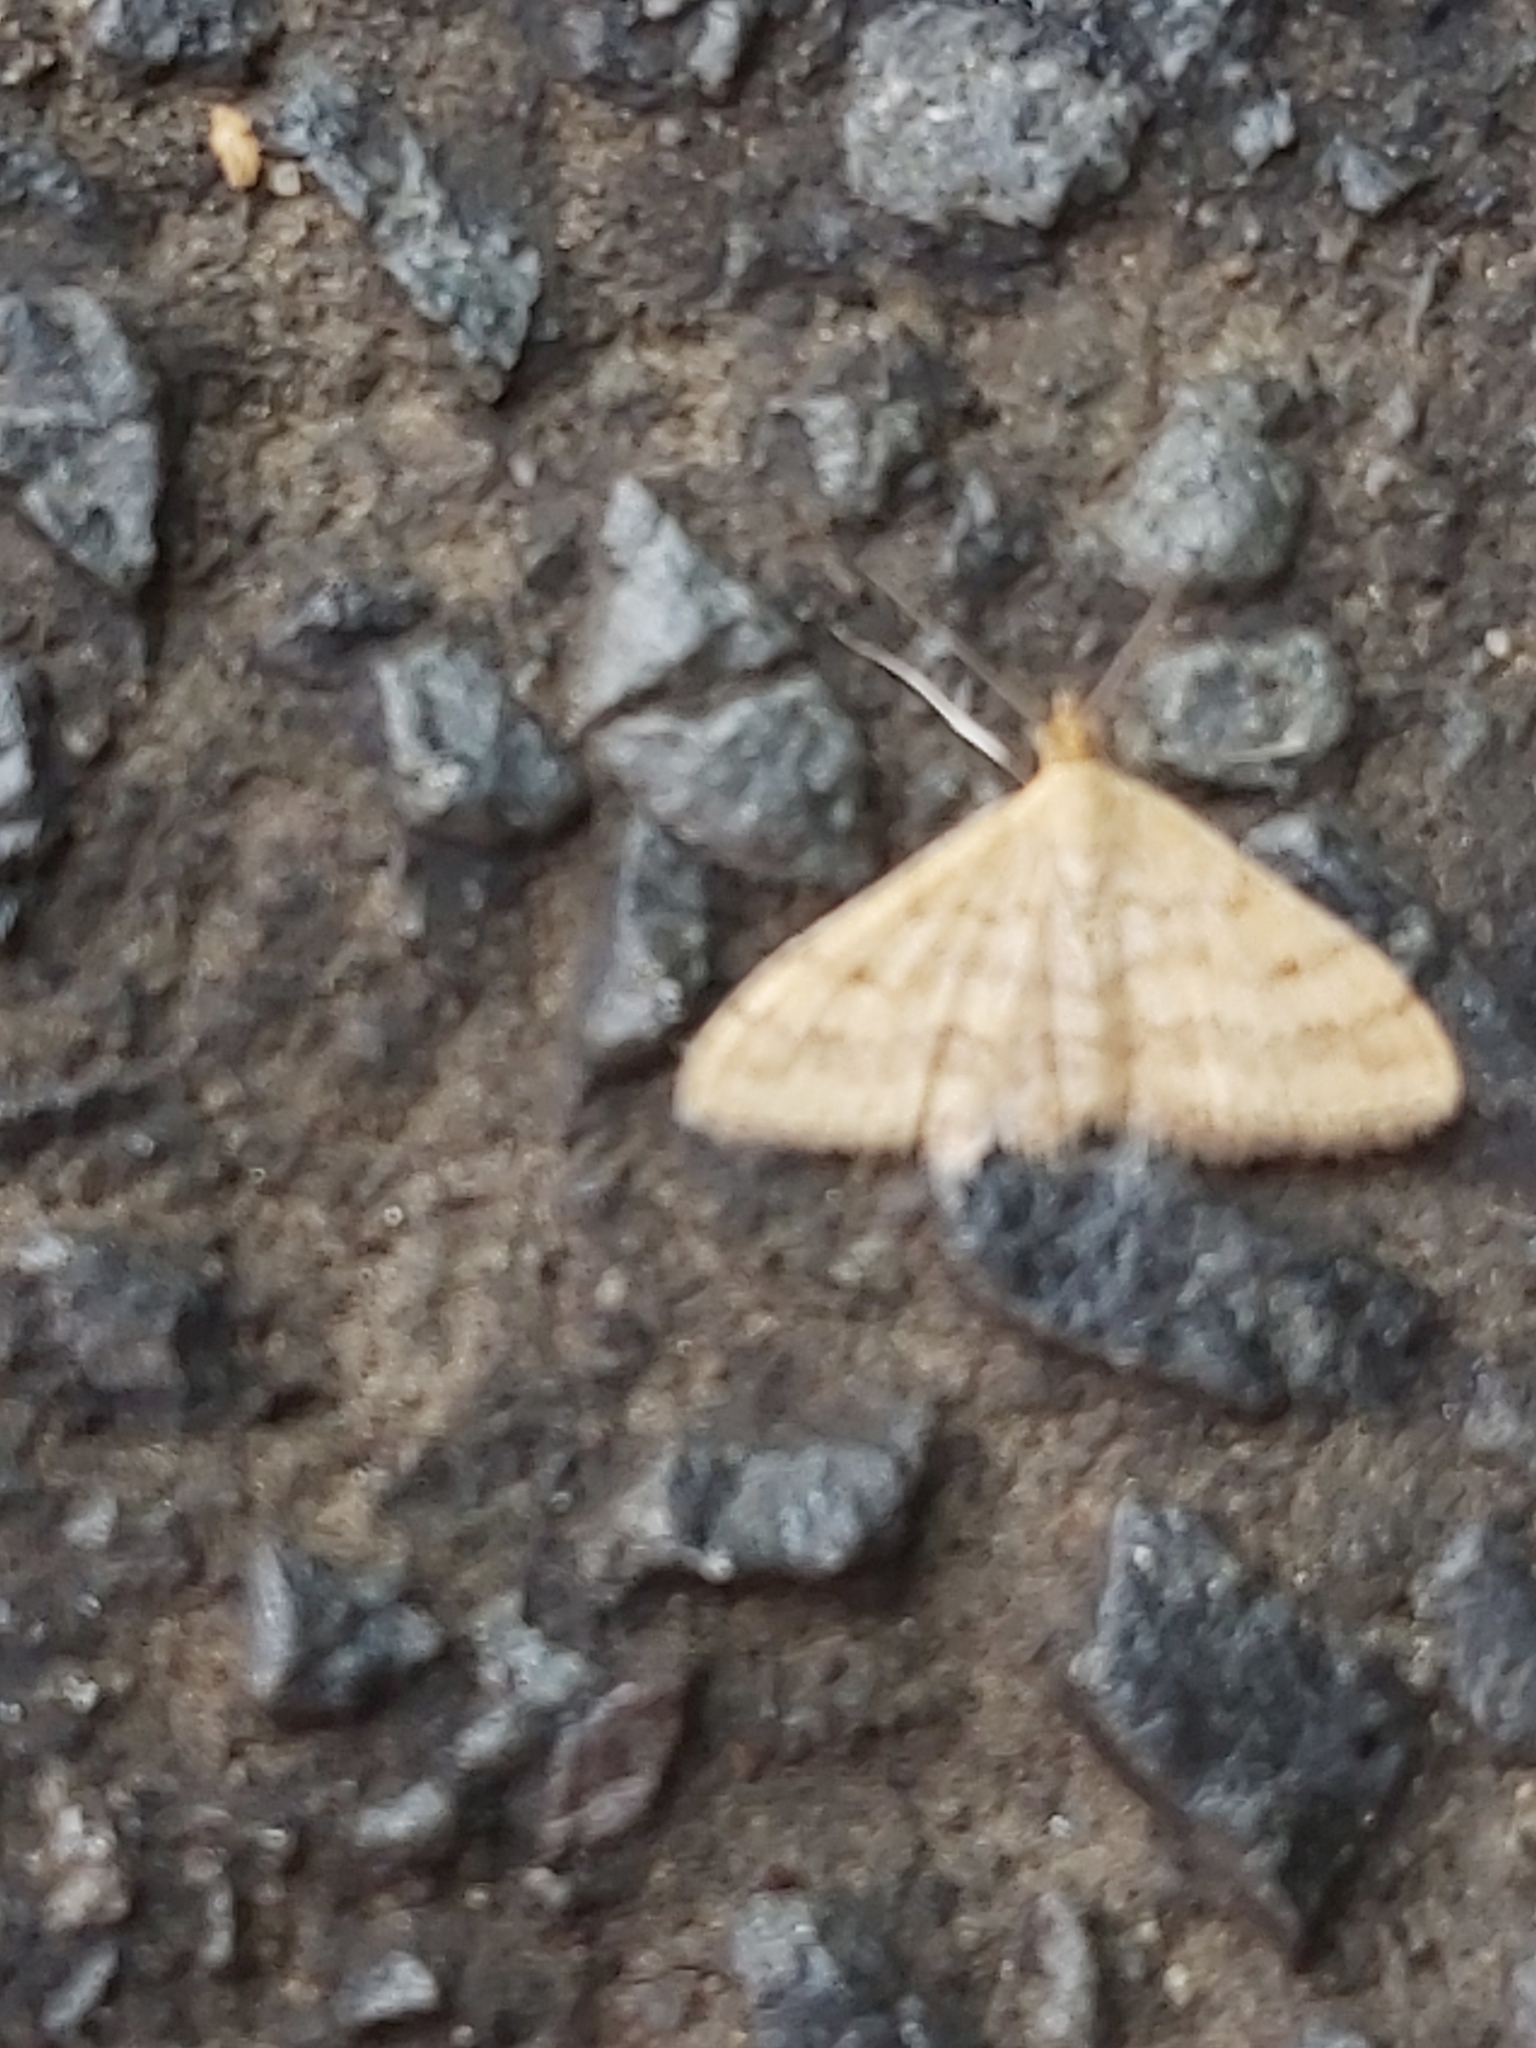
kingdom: Animalia
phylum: Arthropoda
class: Insecta
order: Lepidoptera
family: Geometridae
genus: Scopula
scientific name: Scopula rubraria
